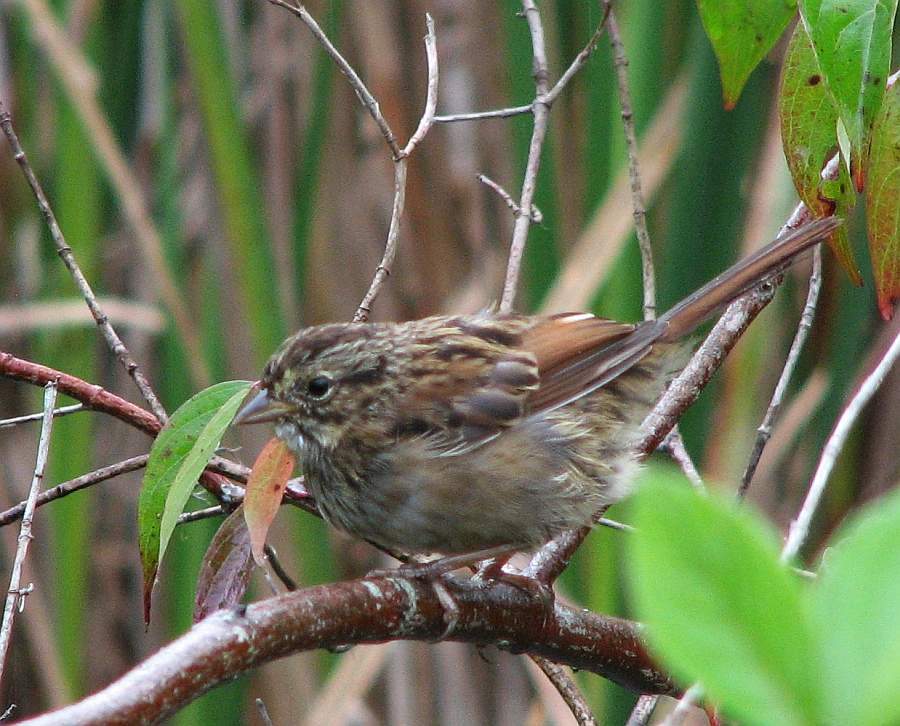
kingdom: Animalia
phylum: Chordata
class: Aves
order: Passeriformes
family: Passerellidae
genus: Melospiza
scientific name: Melospiza georgiana
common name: Swamp sparrow
